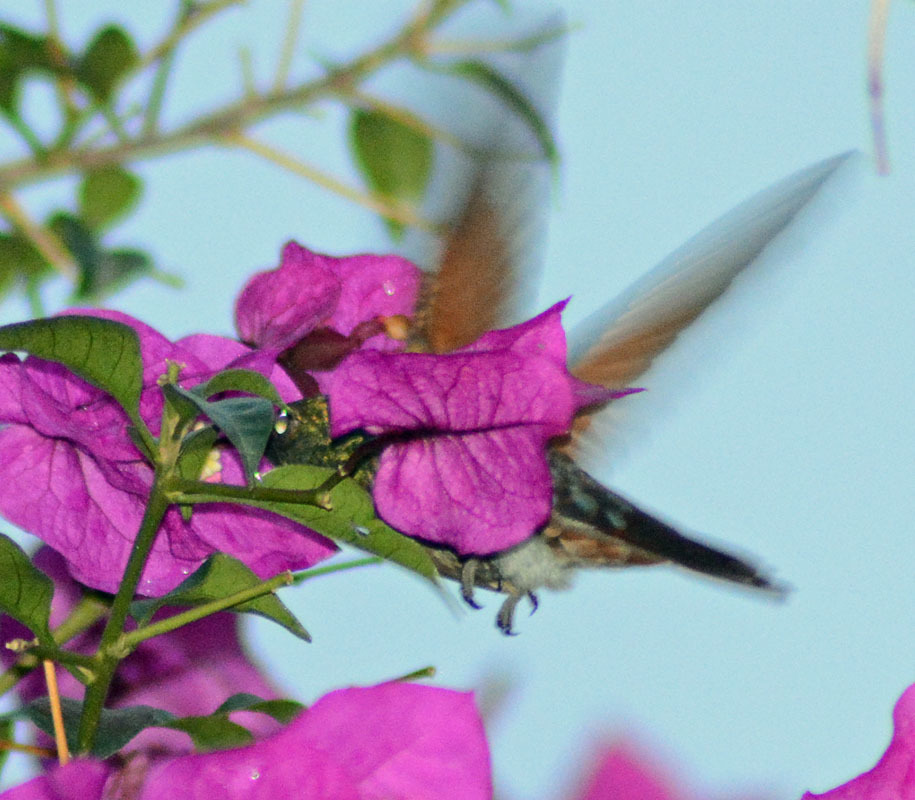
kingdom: Animalia
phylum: Chordata
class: Aves
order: Apodiformes
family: Trochilidae
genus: Saucerottia
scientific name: Saucerottia beryllina
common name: Berylline hummingbird
